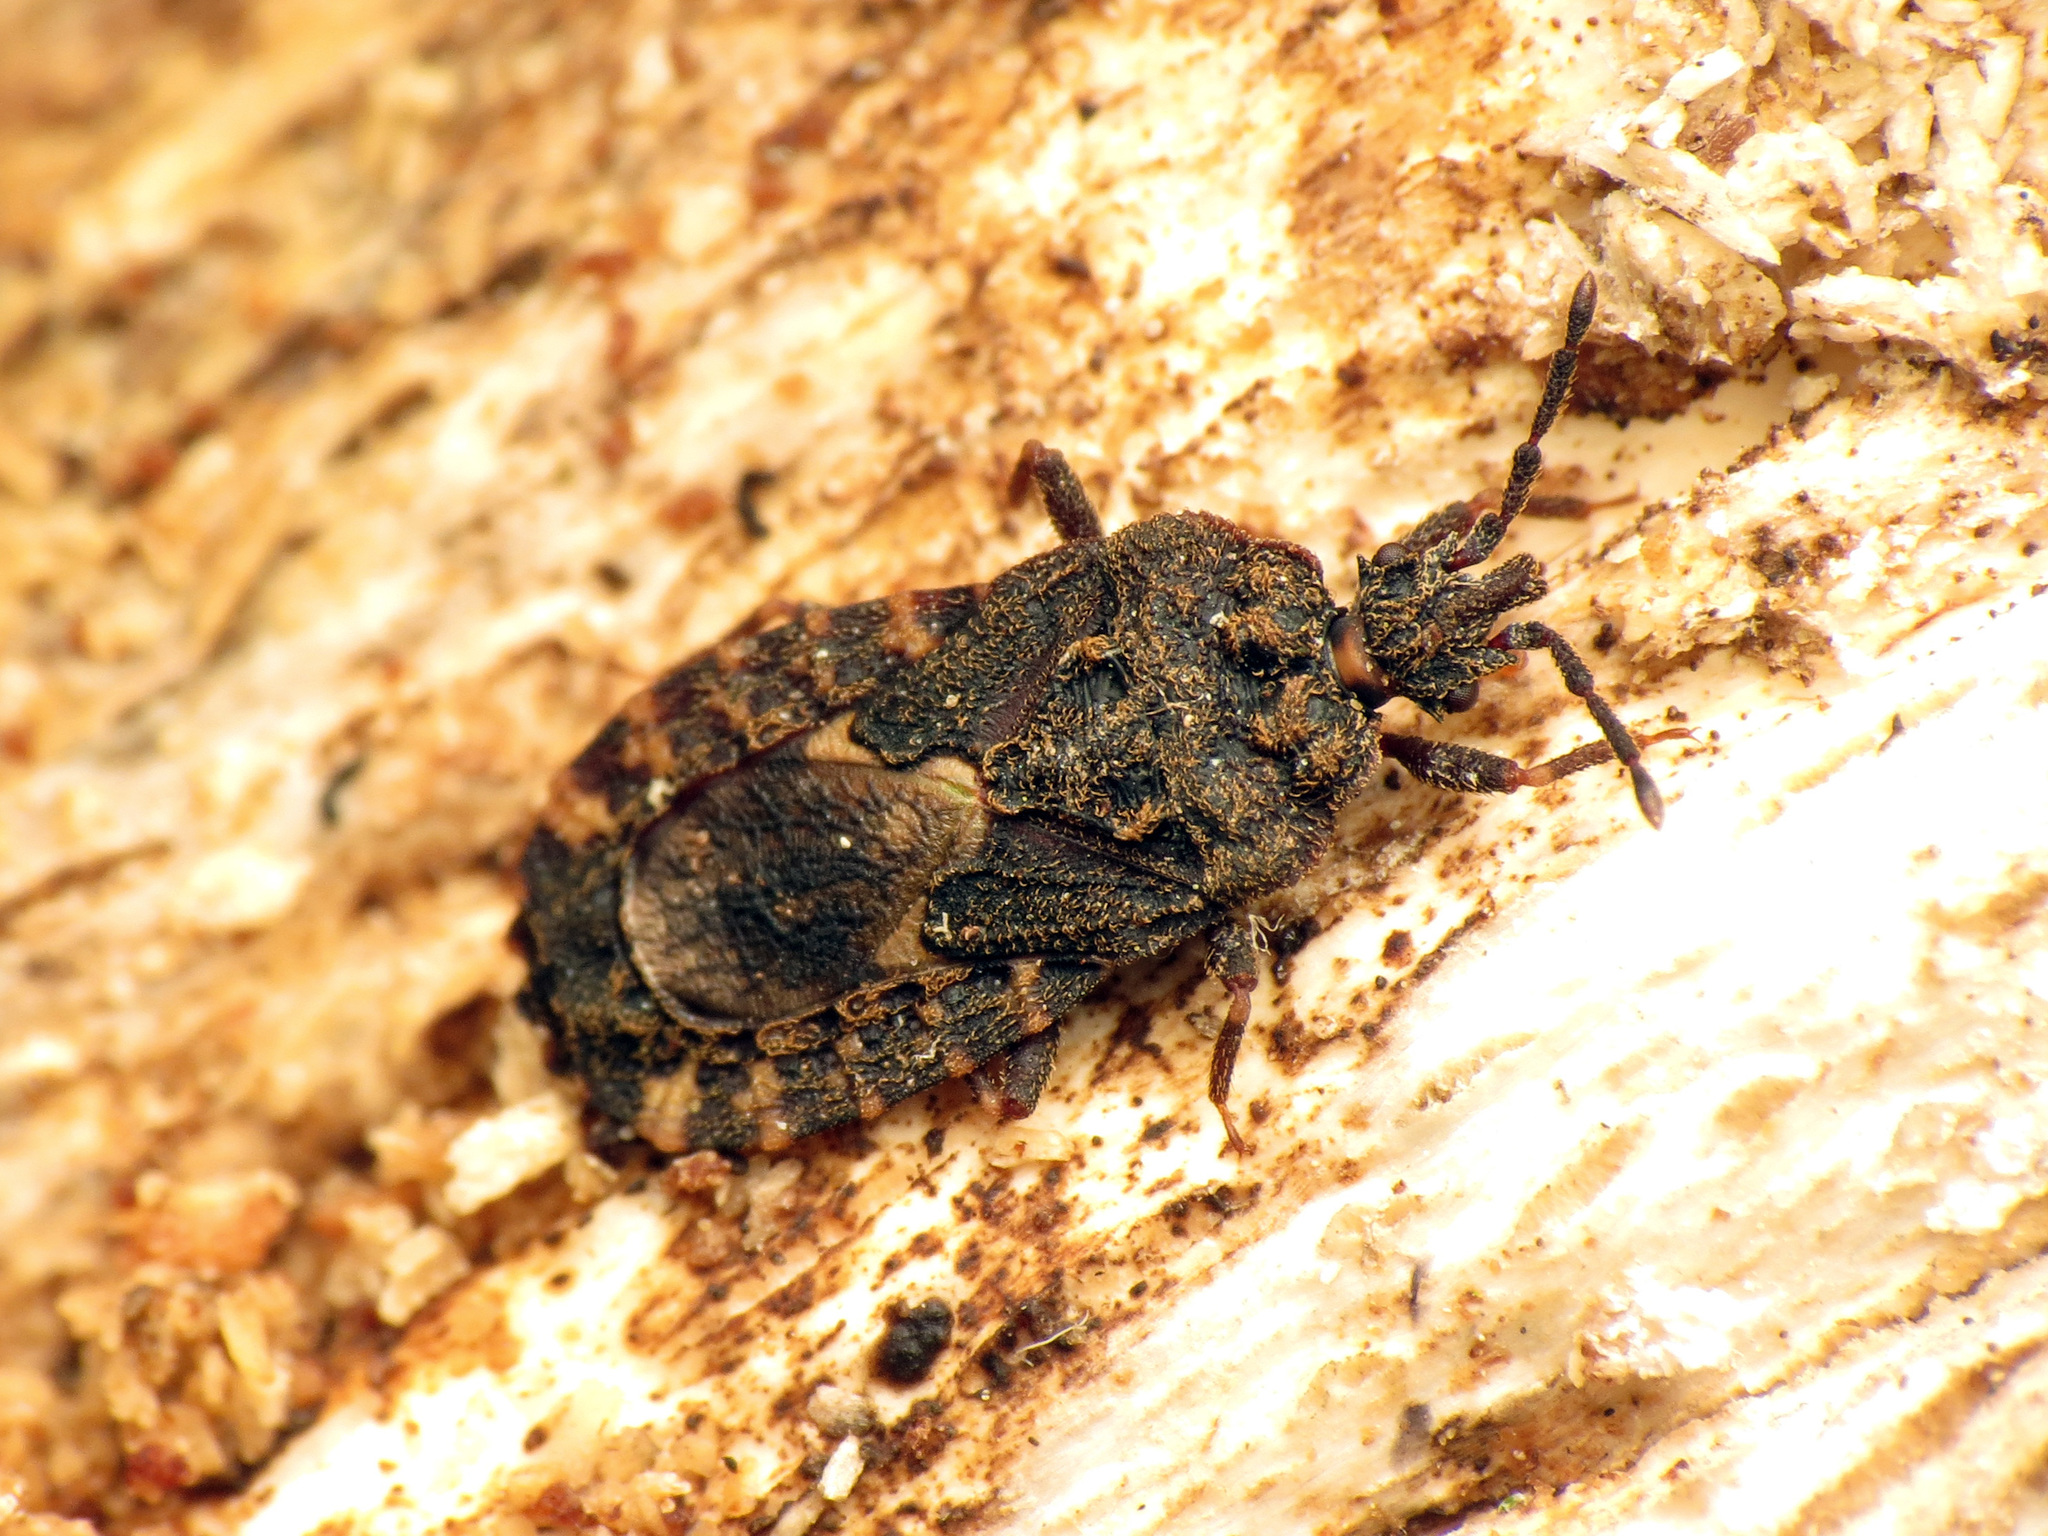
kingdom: Animalia
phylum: Arthropoda
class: Insecta
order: Hemiptera
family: Aradidae
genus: Mezira
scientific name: Mezira
